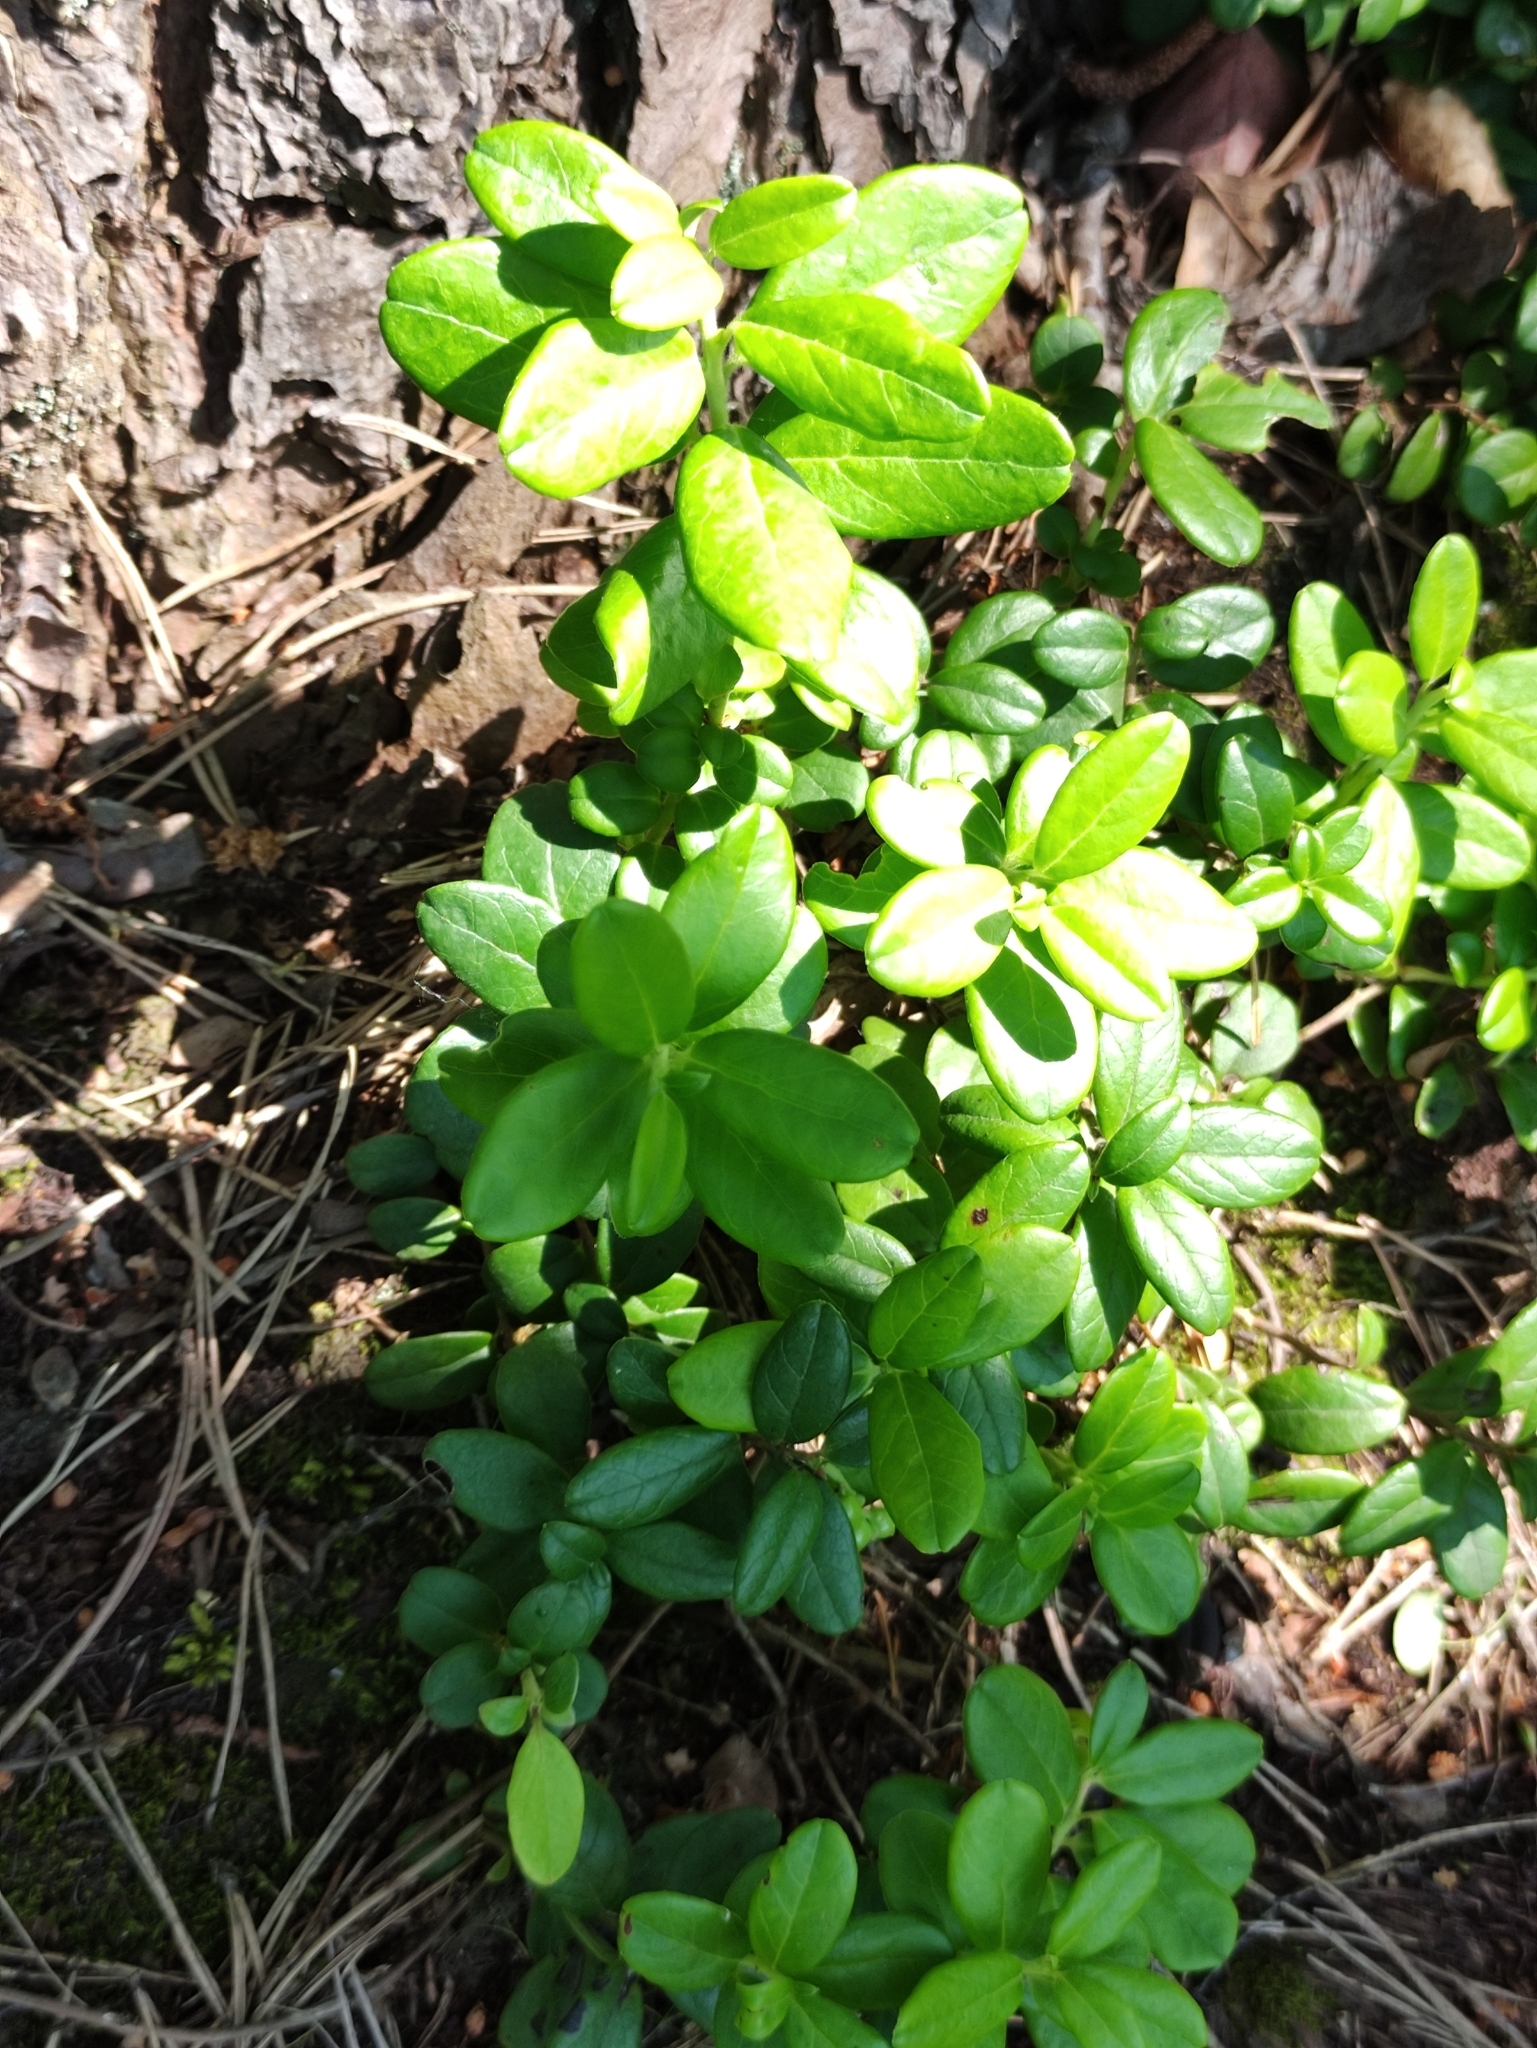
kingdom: Plantae
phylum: Tracheophyta
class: Magnoliopsida
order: Ericales
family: Ericaceae
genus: Vaccinium
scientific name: Vaccinium vitis-idaea
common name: Cowberry
